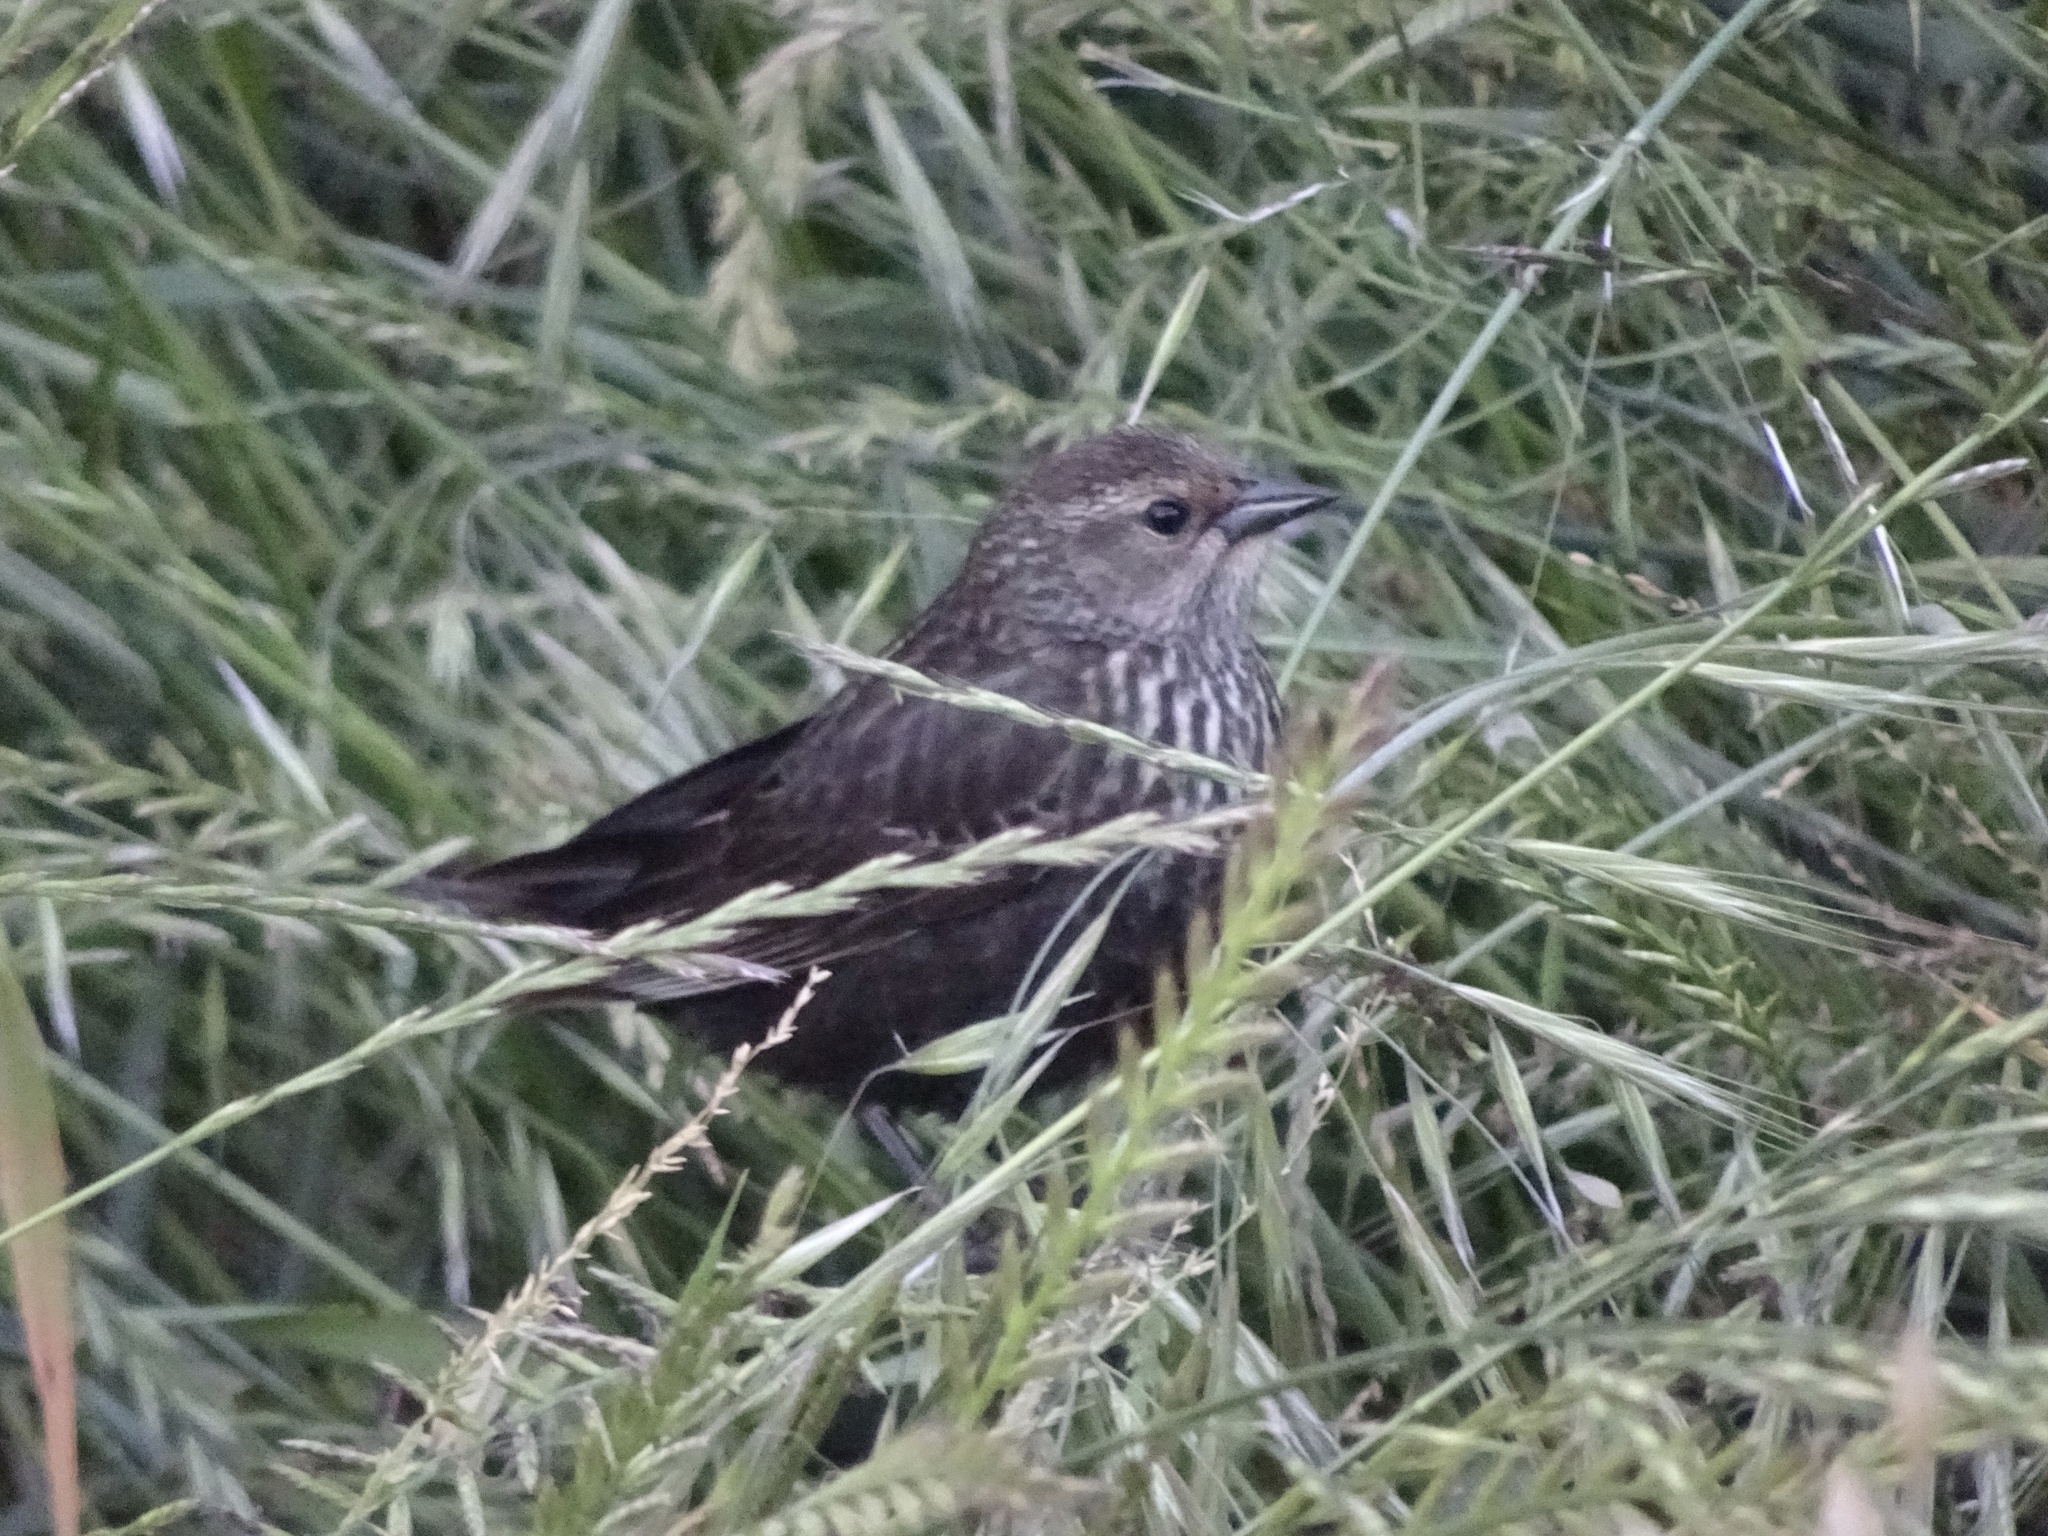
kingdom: Animalia
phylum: Chordata
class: Aves
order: Passeriformes
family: Icteridae
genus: Agelaius
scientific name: Agelaius phoeniceus
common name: Red-winged blackbird
